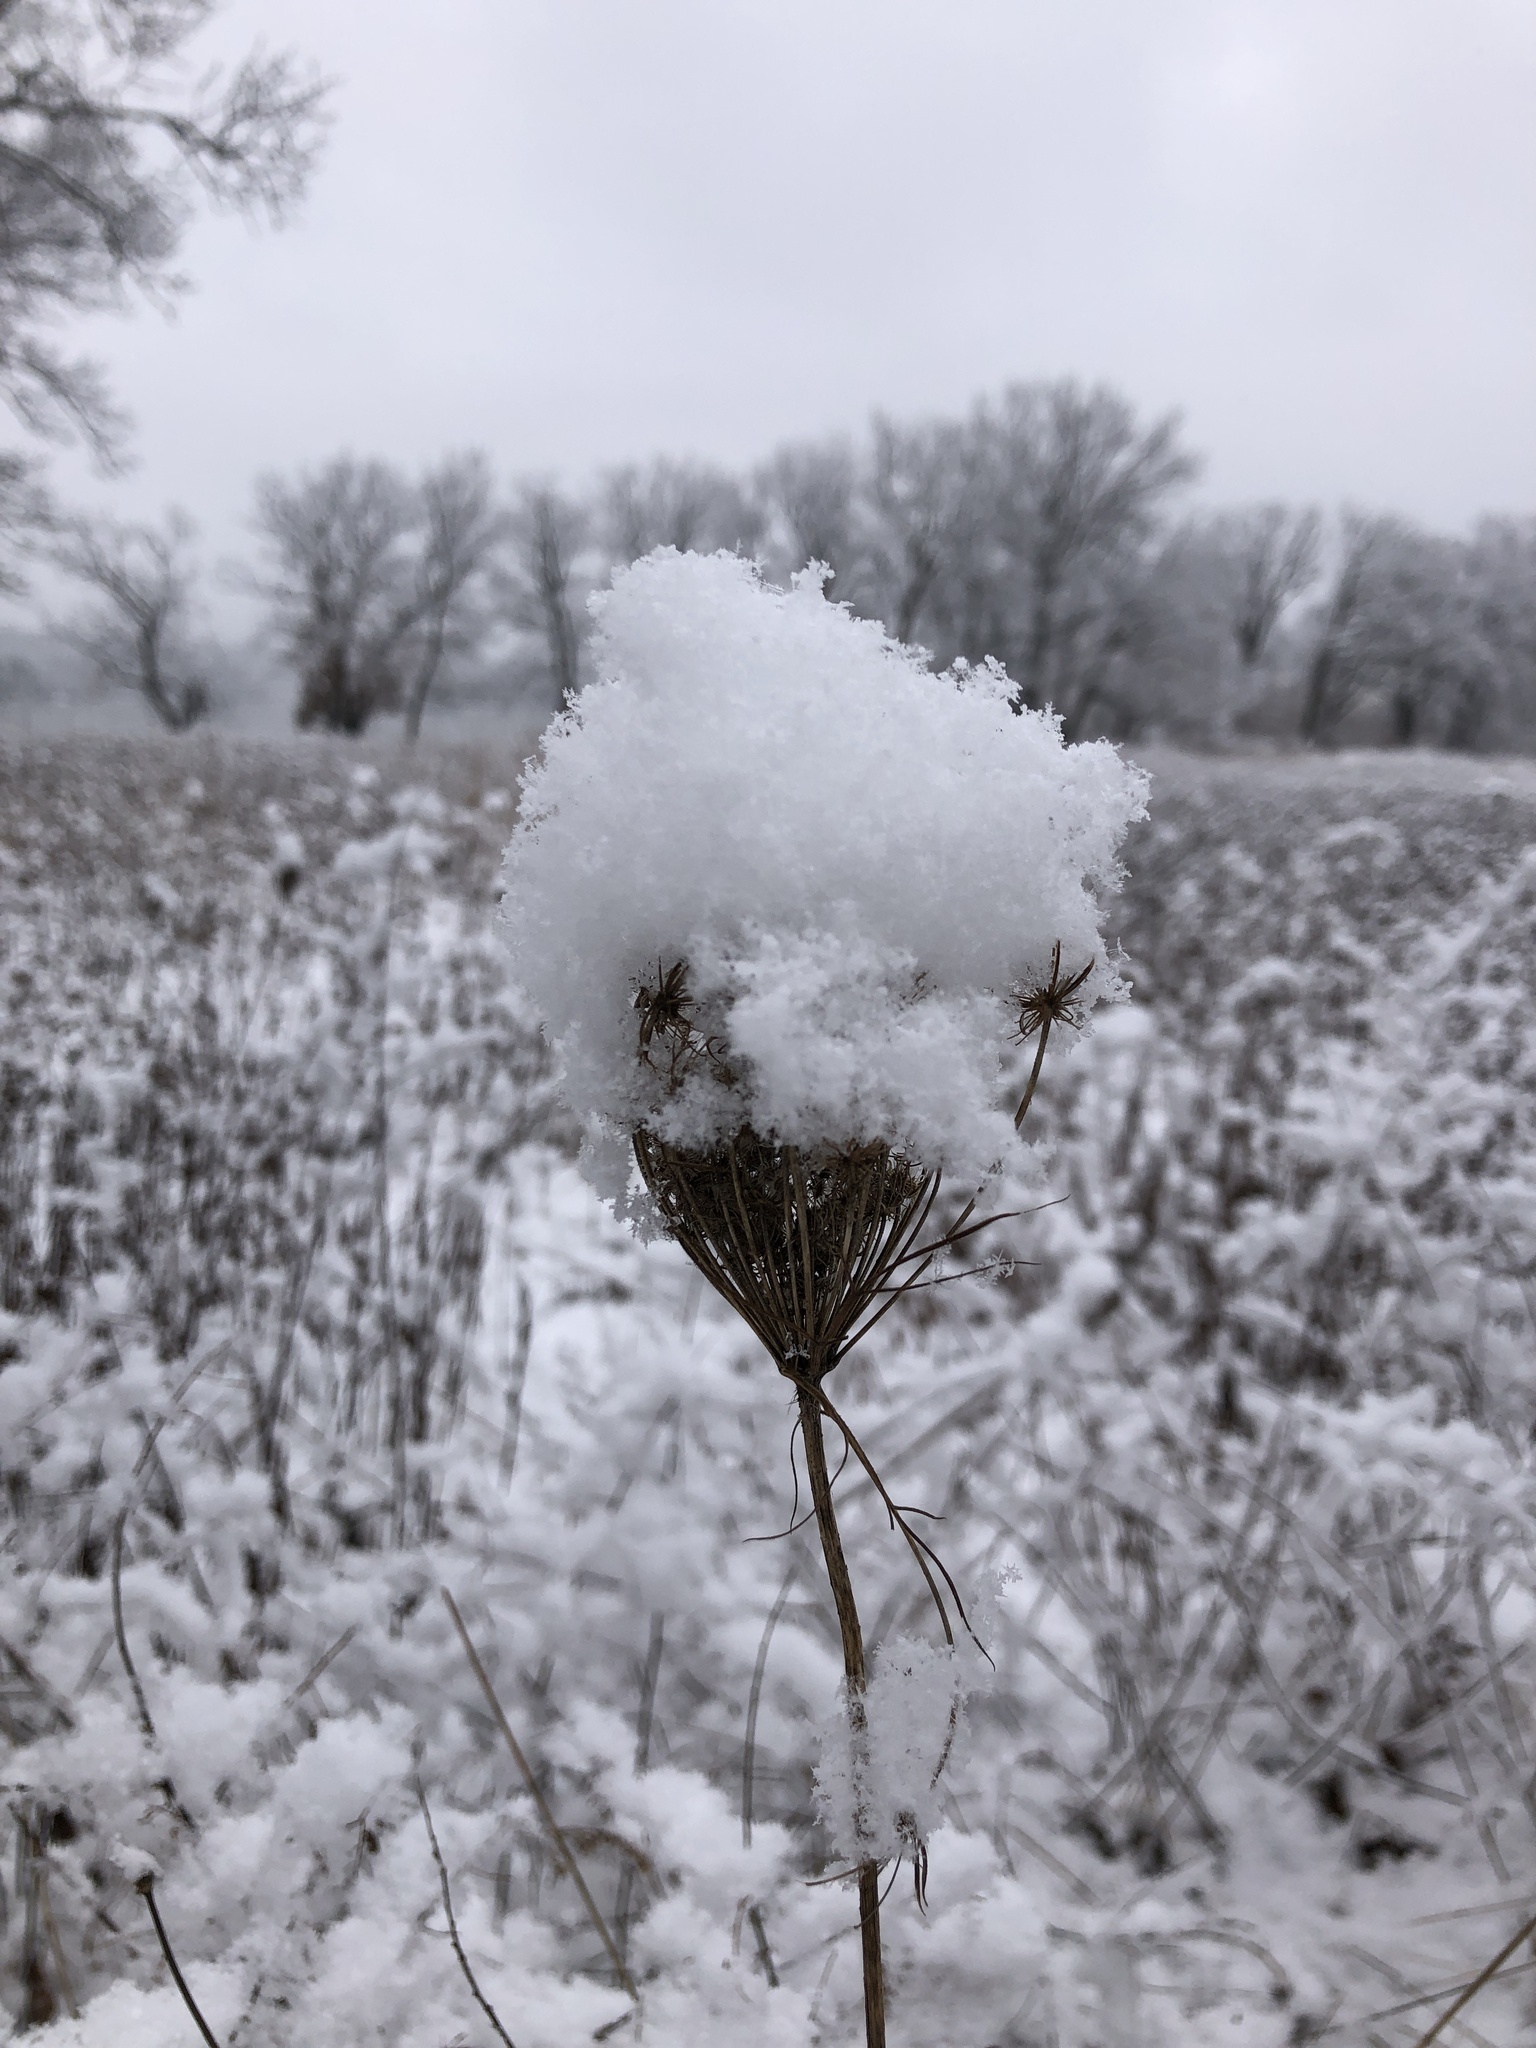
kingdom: Plantae
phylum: Tracheophyta
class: Magnoliopsida
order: Apiales
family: Apiaceae
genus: Daucus
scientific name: Daucus carota
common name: Wild carrot
